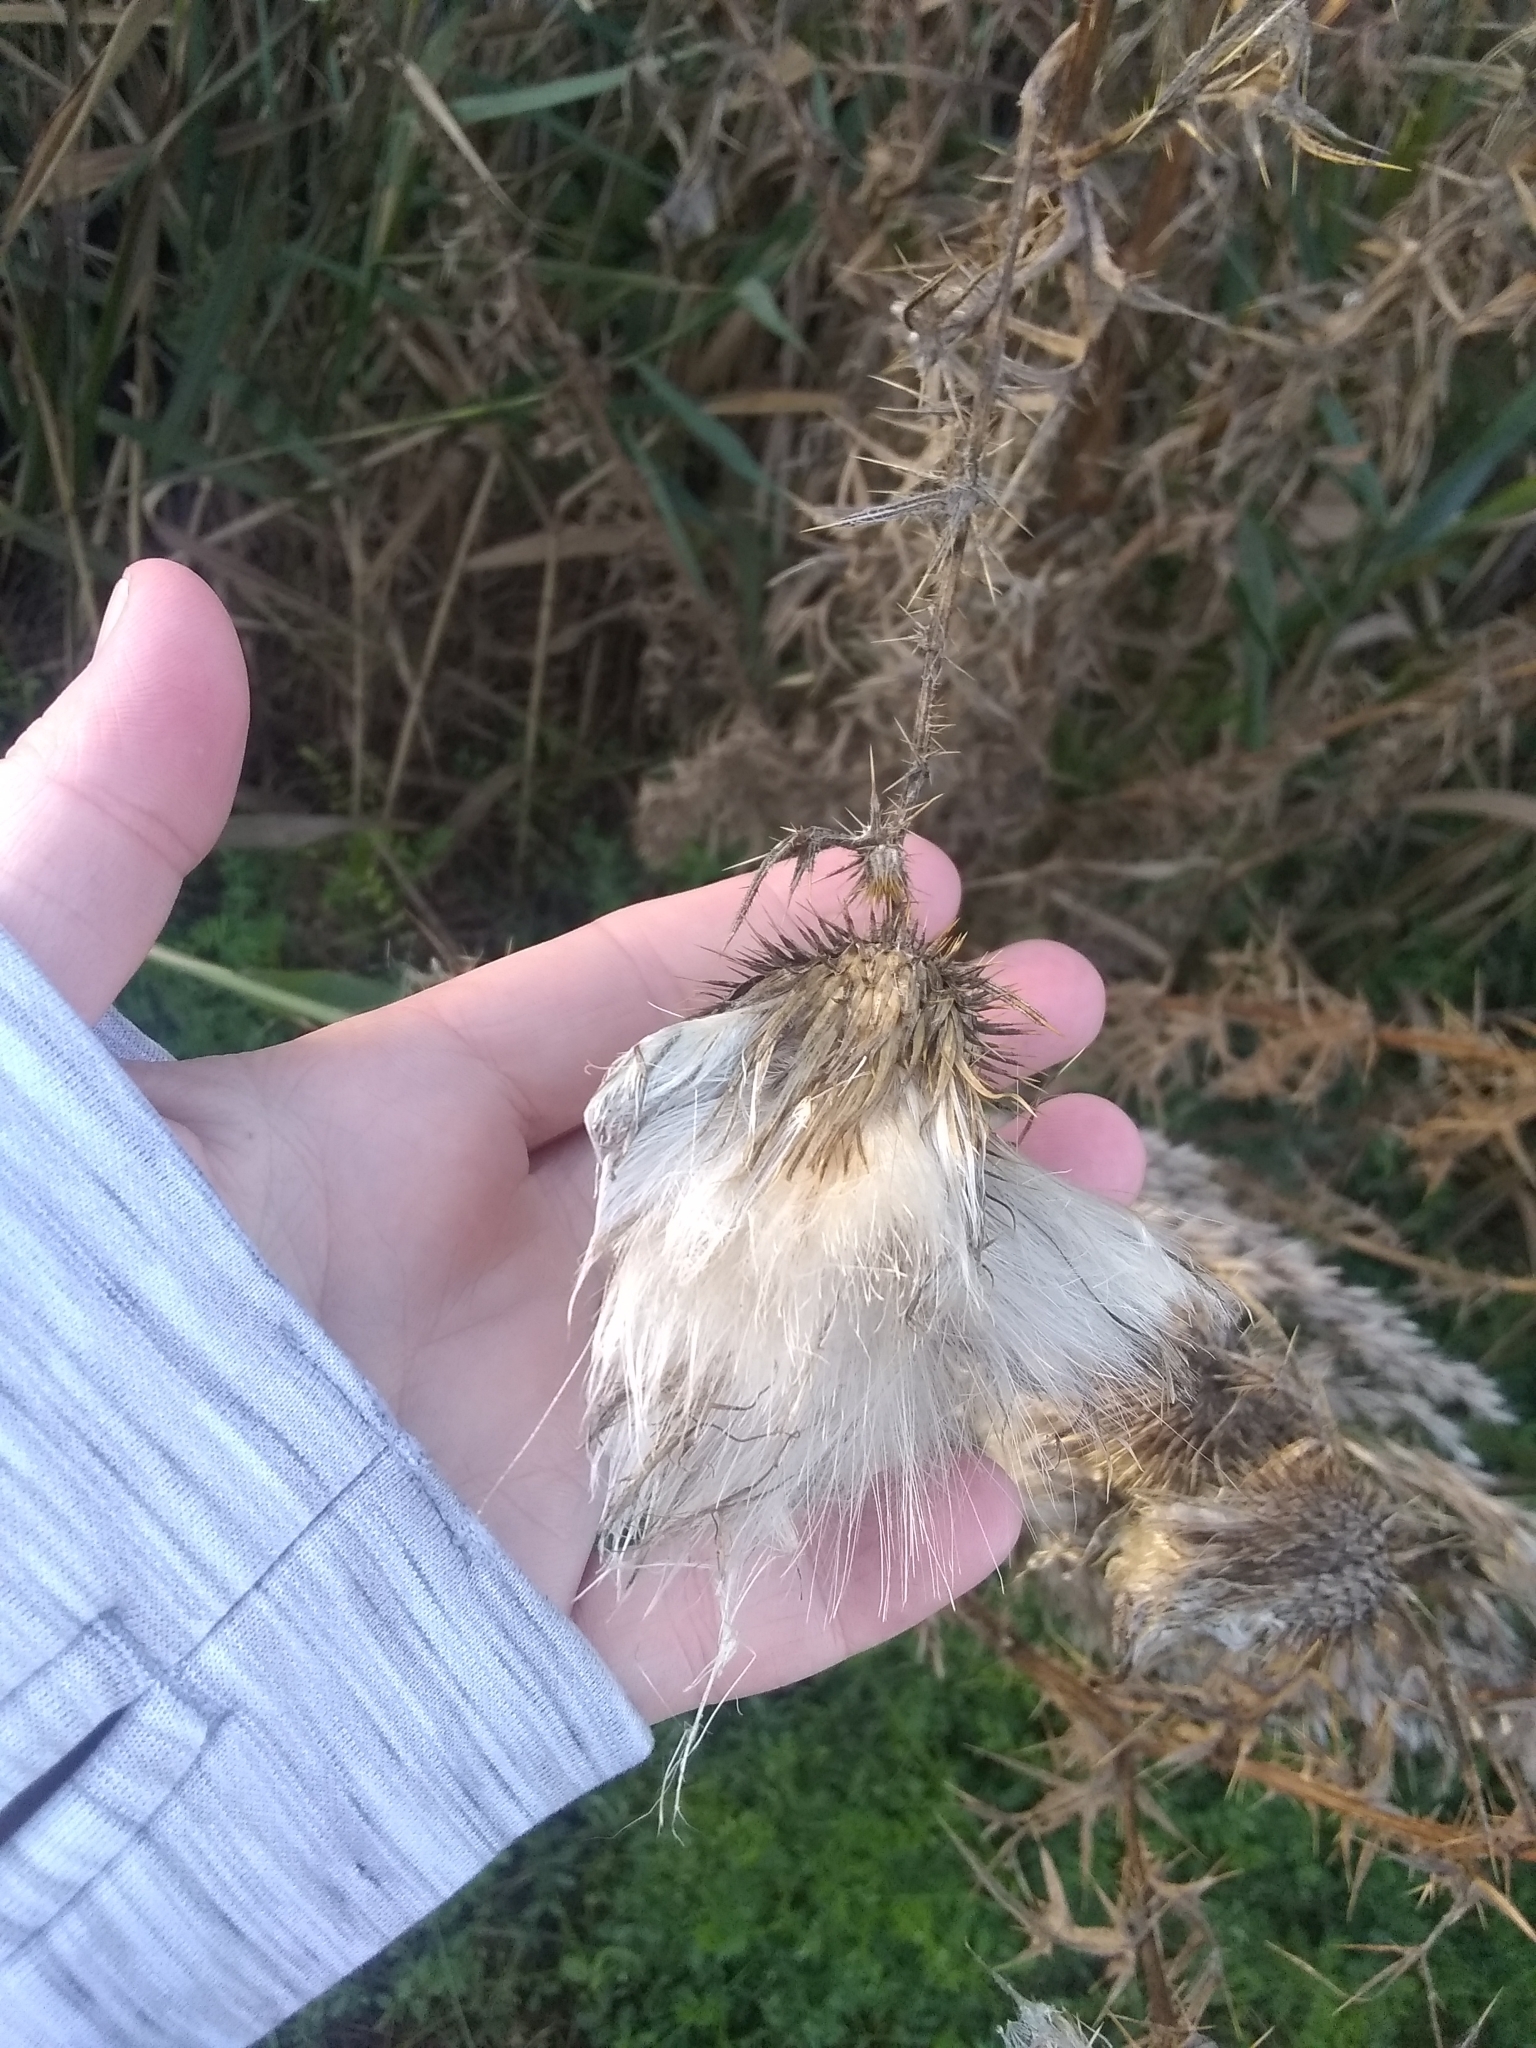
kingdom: Plantae
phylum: Tracheophyta
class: Magnoliopsida
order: Asterales
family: Asteraceae
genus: Cirsium
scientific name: Cirsium vulgare
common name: Bull thistle
